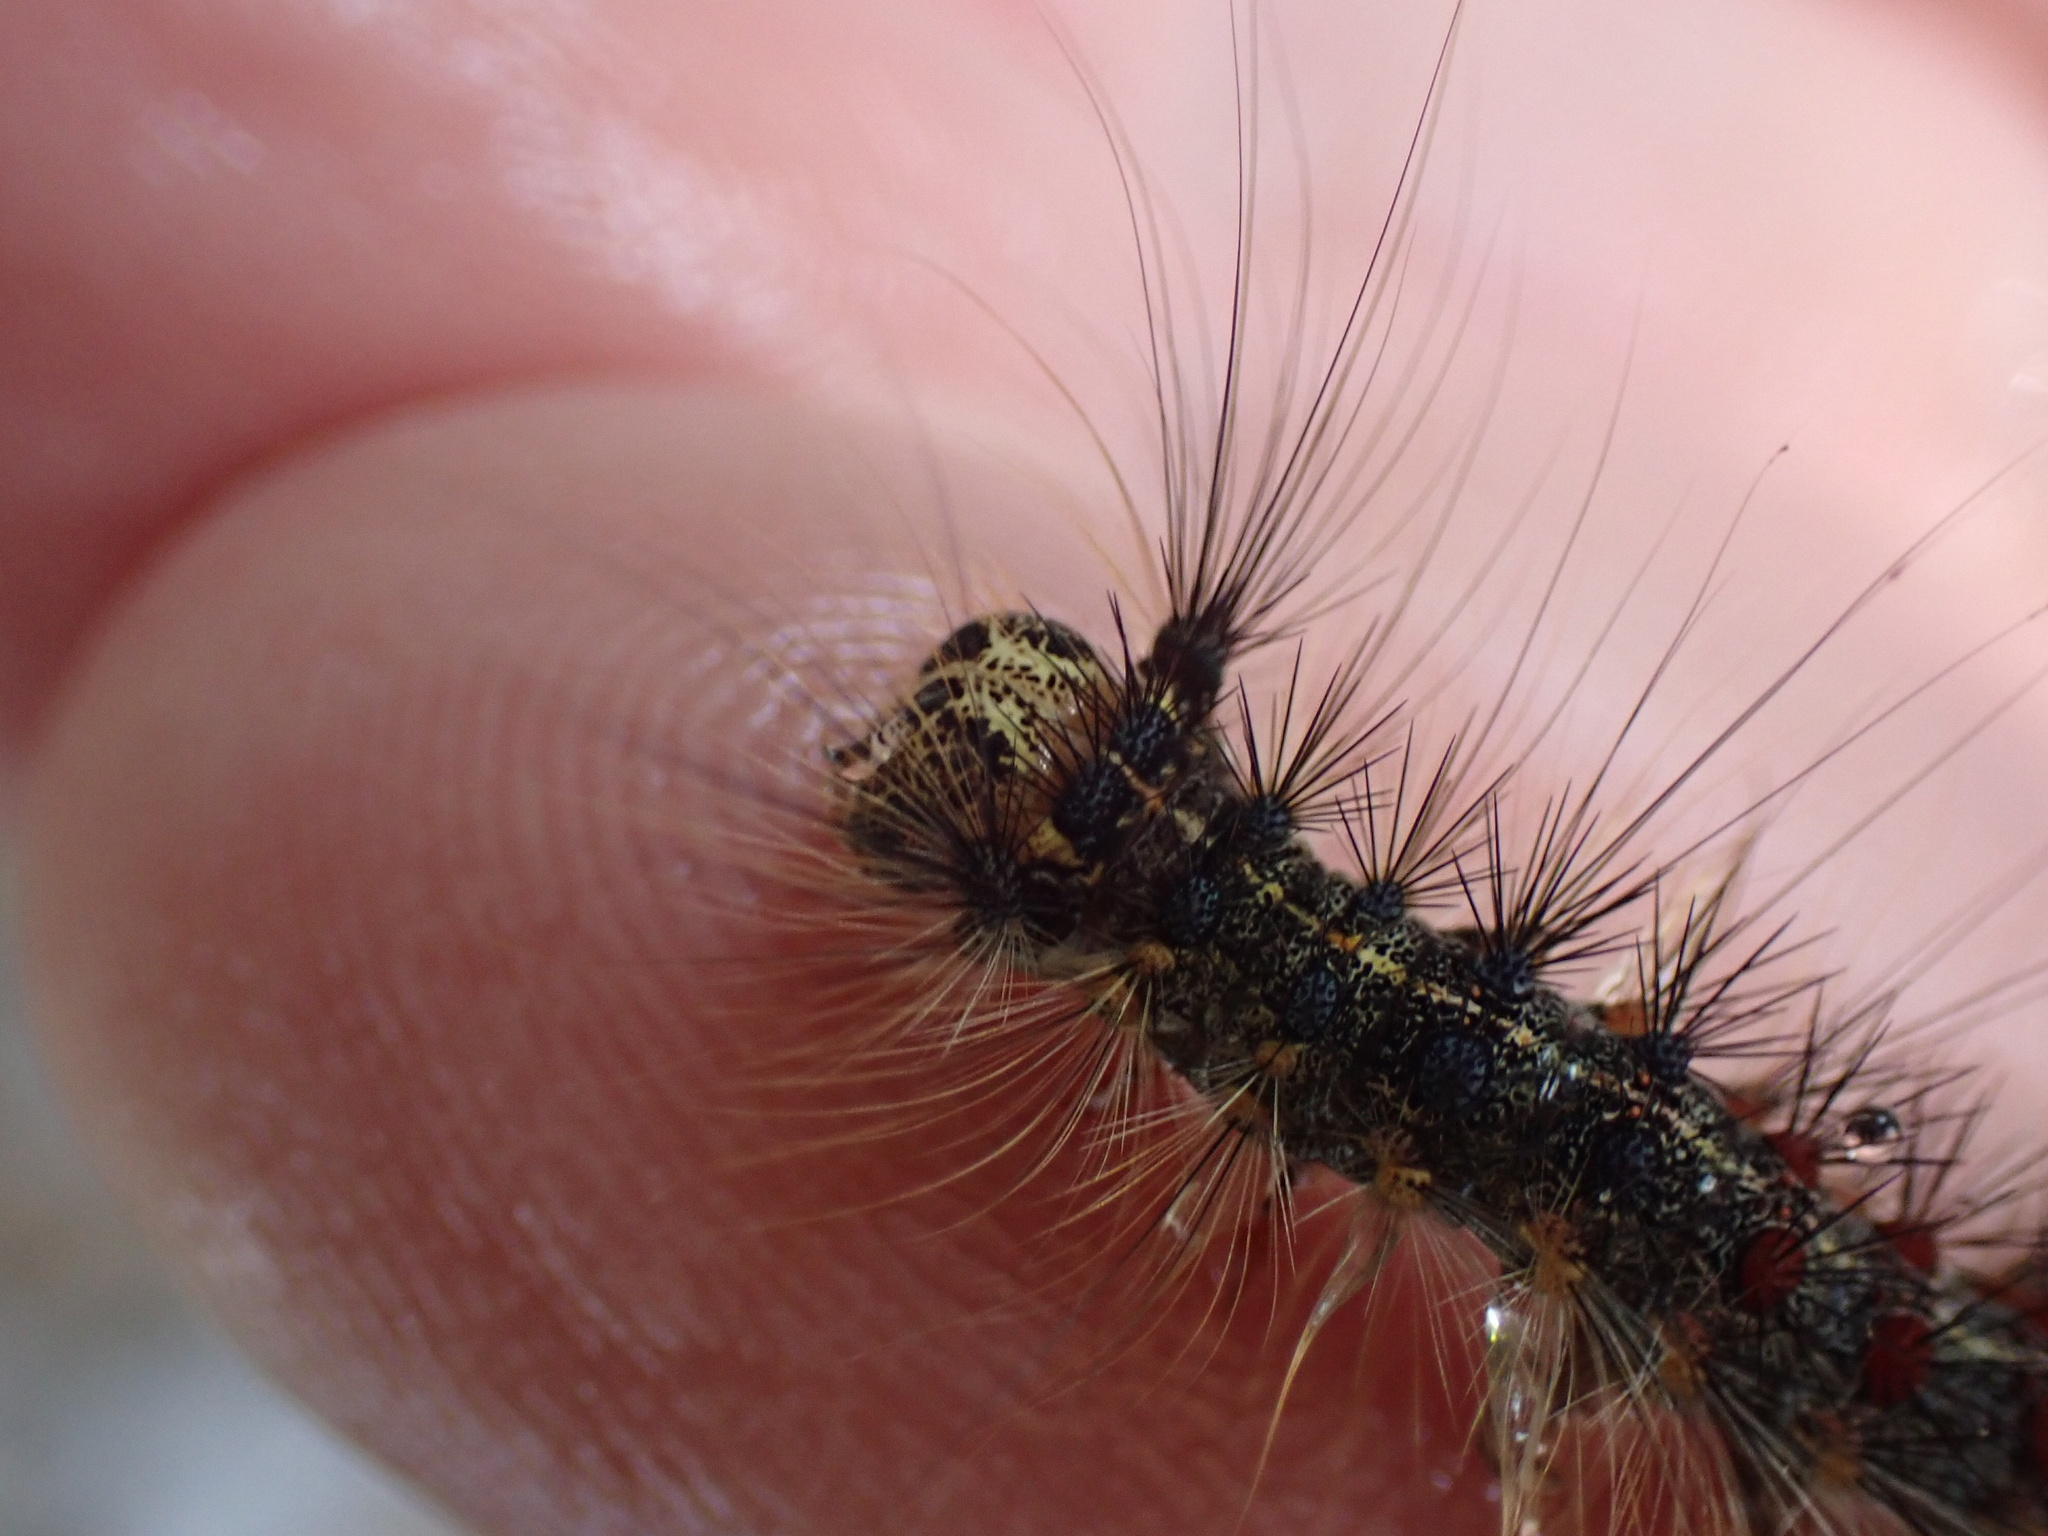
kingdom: Animalia
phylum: Arthropoda
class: Insecta
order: Lepidoptera
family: Erebidae
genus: Lymantria
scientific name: Lymantria dispar
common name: Gypsy moth
